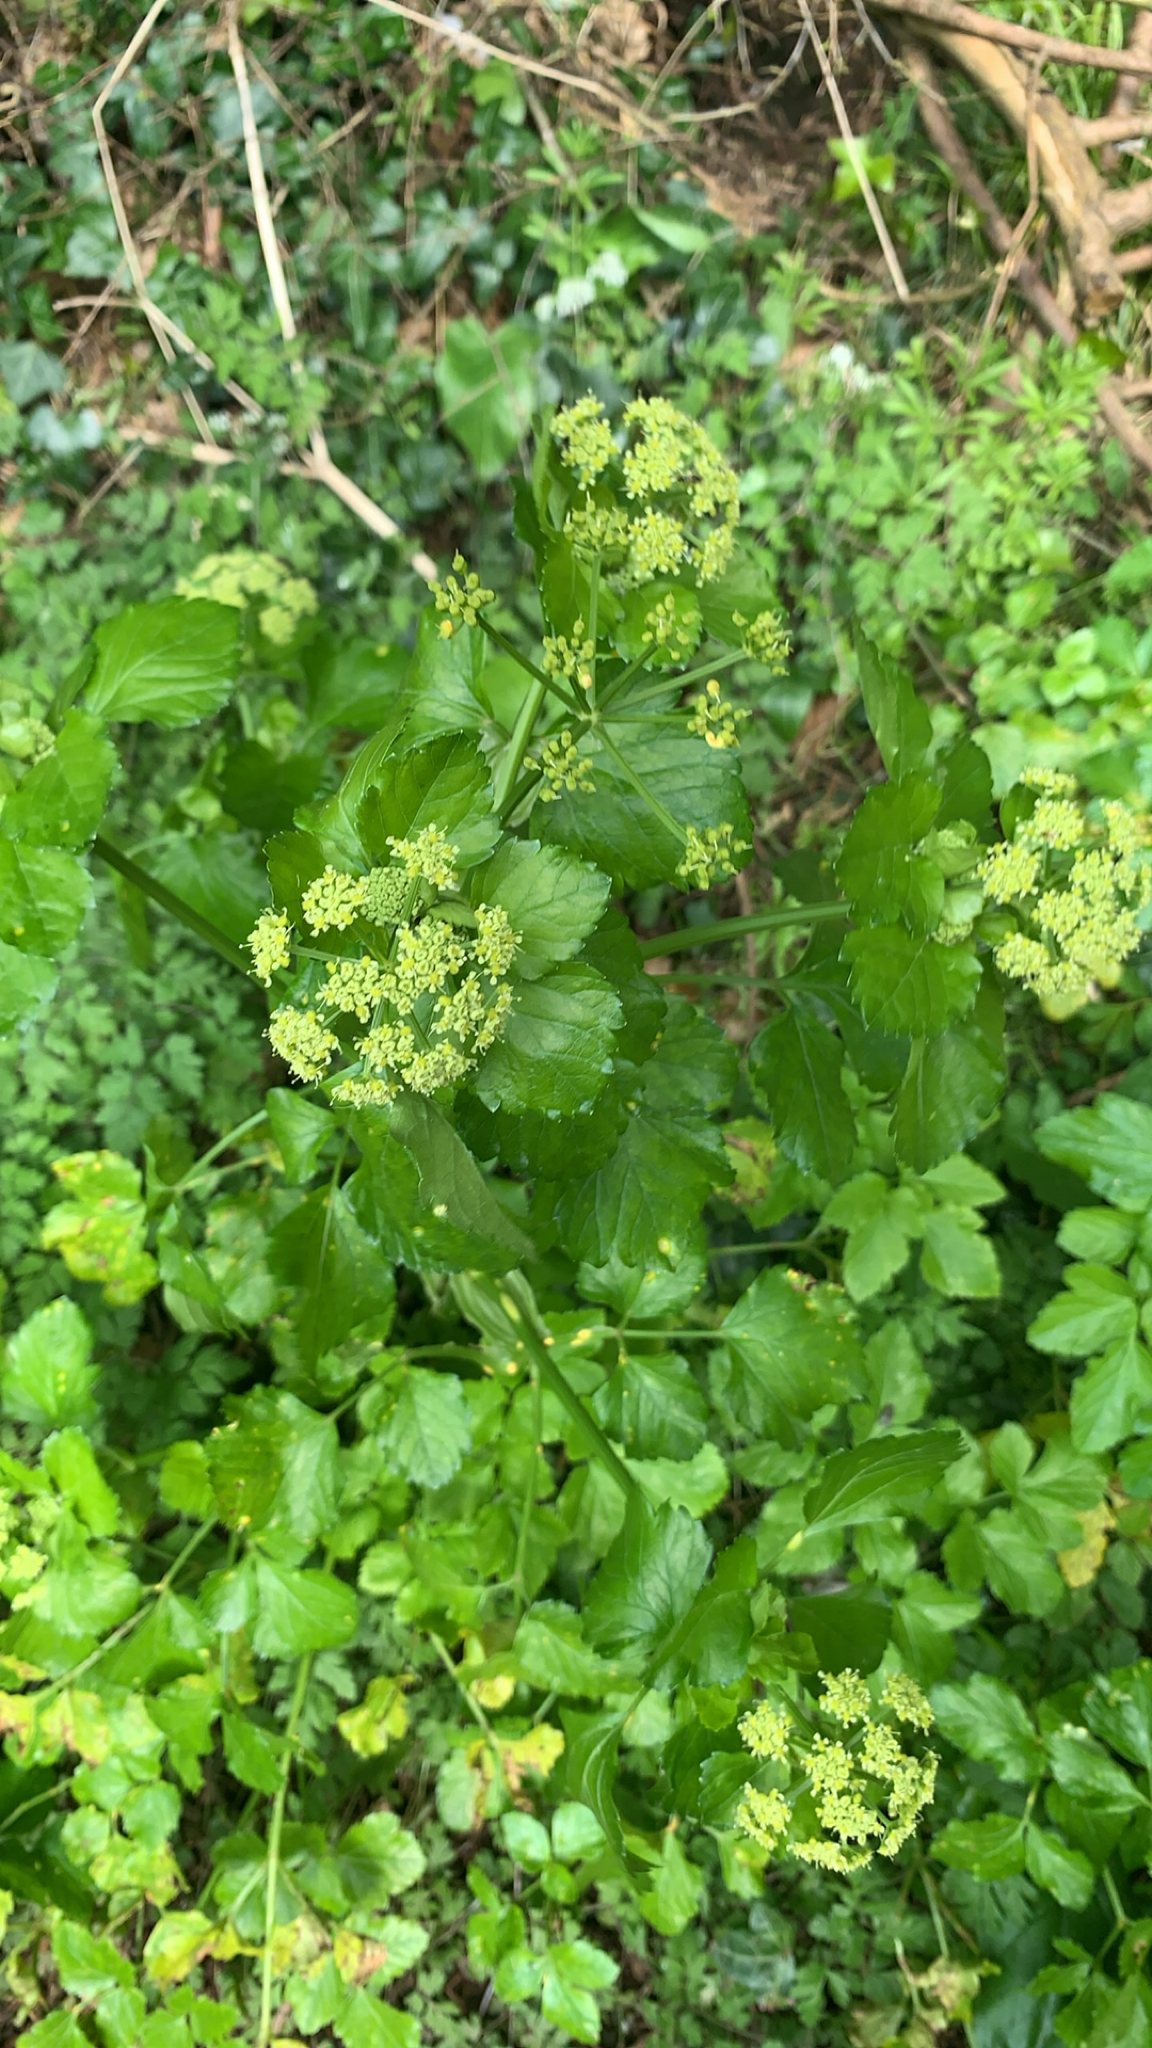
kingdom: Plantae
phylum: Tracheophyta
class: Magnoliopsida
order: Apiales
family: Apiaceae
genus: Smyrnium
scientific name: Smyrnium olusatrum
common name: Alexanders
